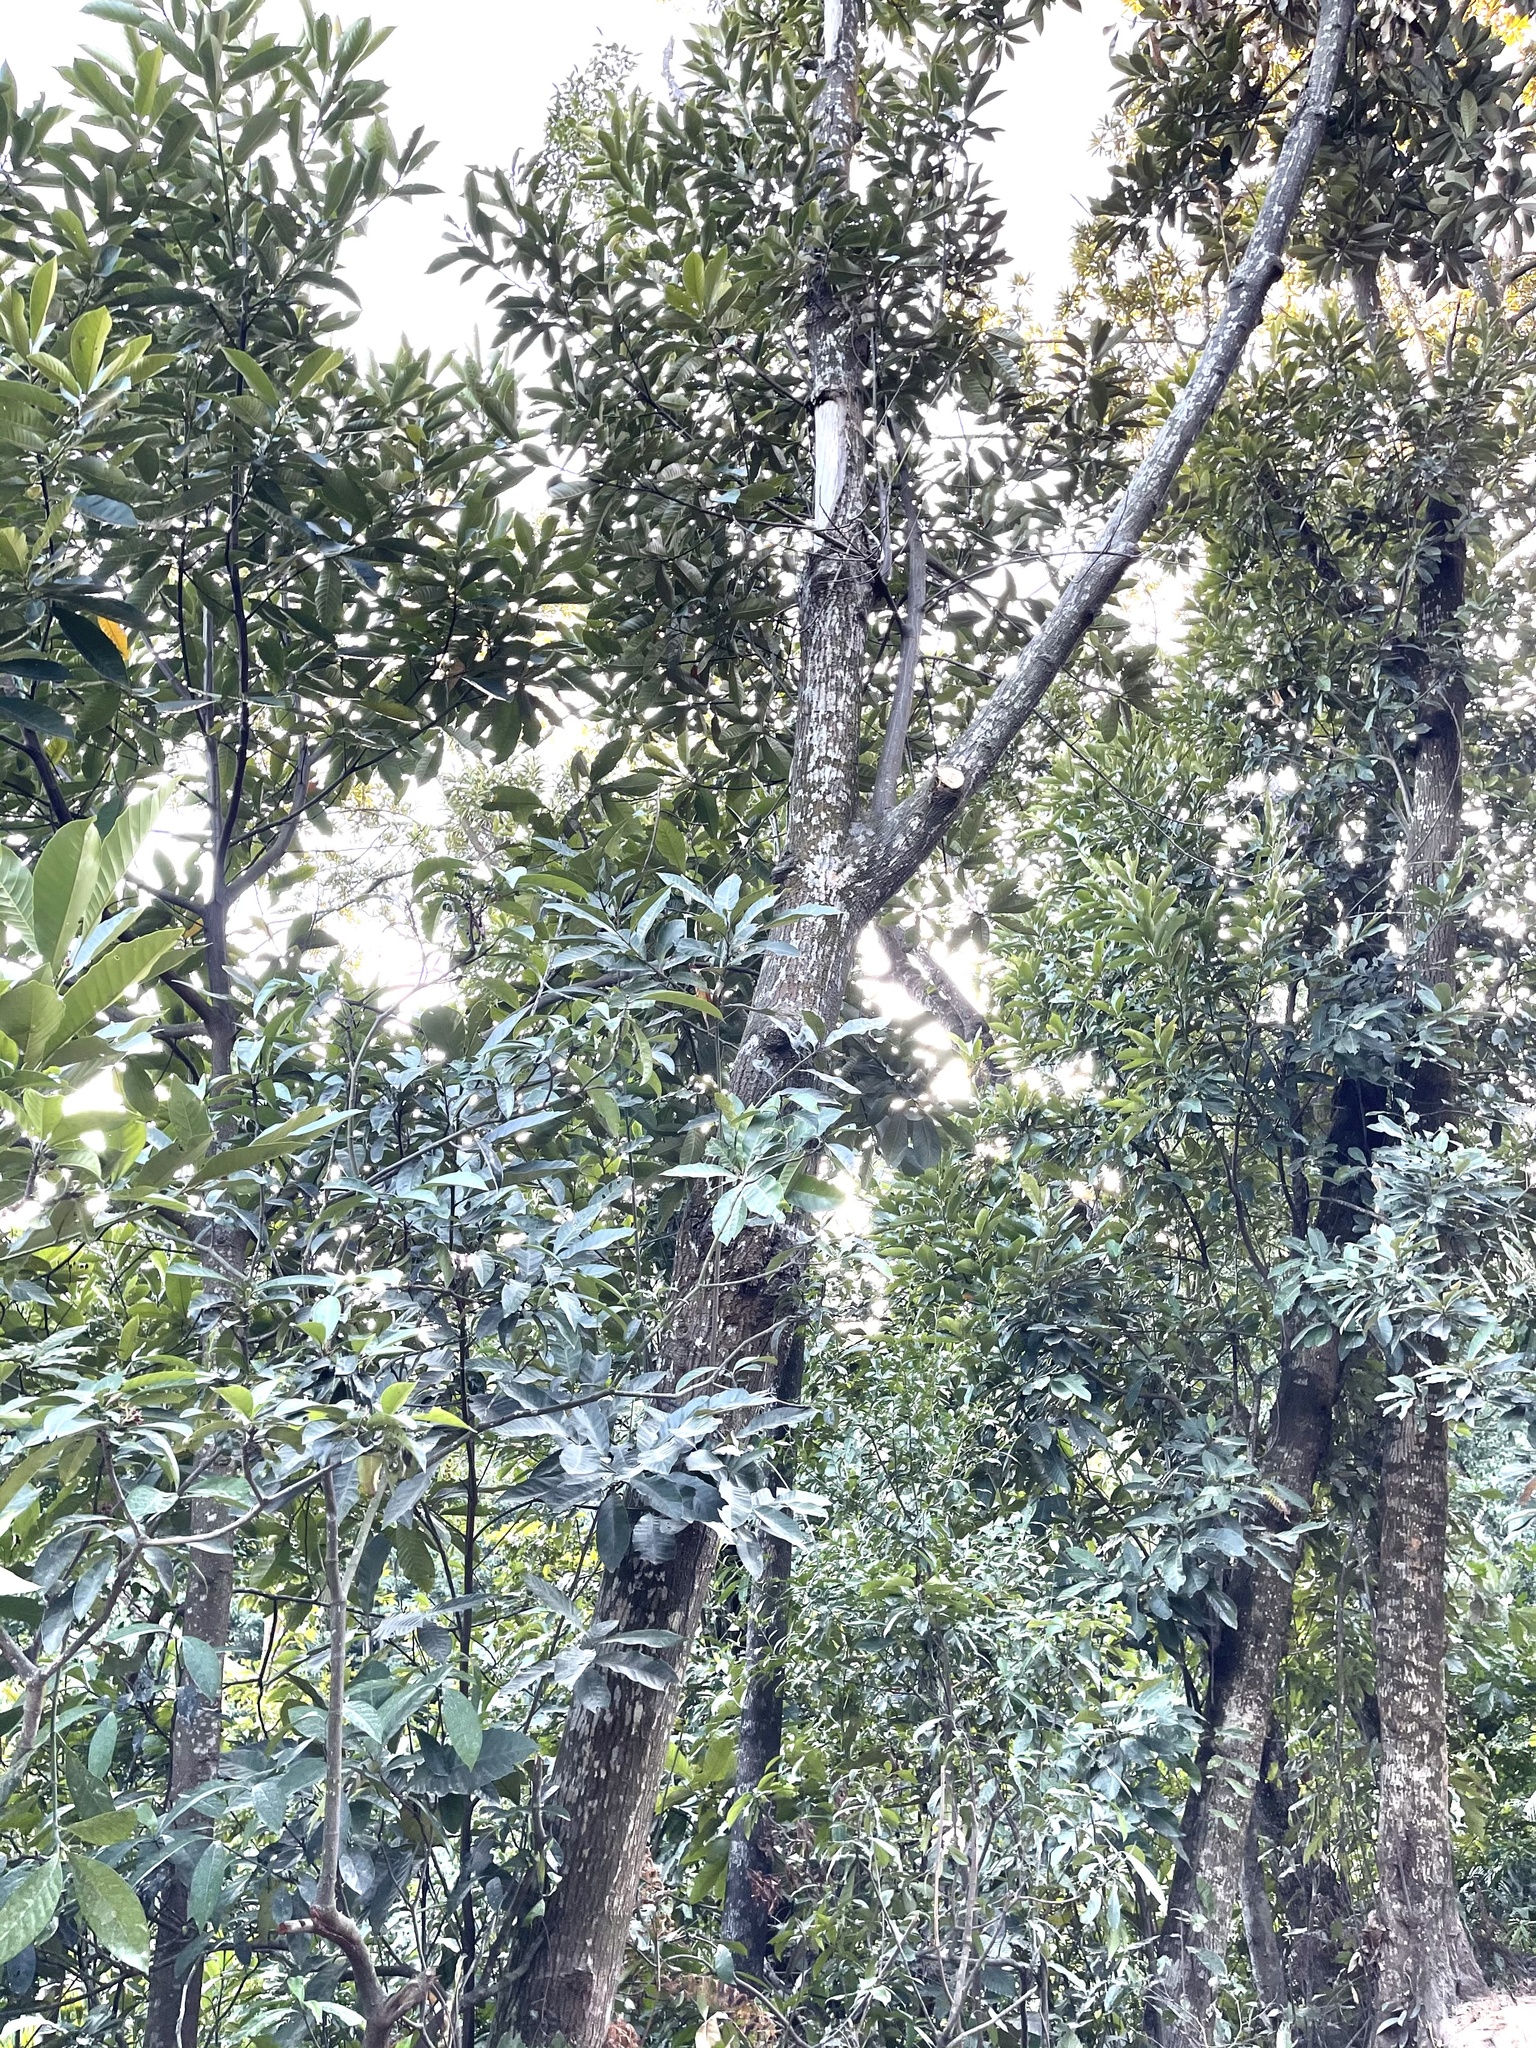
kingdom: Plantae
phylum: Tracheophyta
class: Magnoliopsida
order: Fagales
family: Fagaceae
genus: Castanopsis
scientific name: Castanopsis fissa
